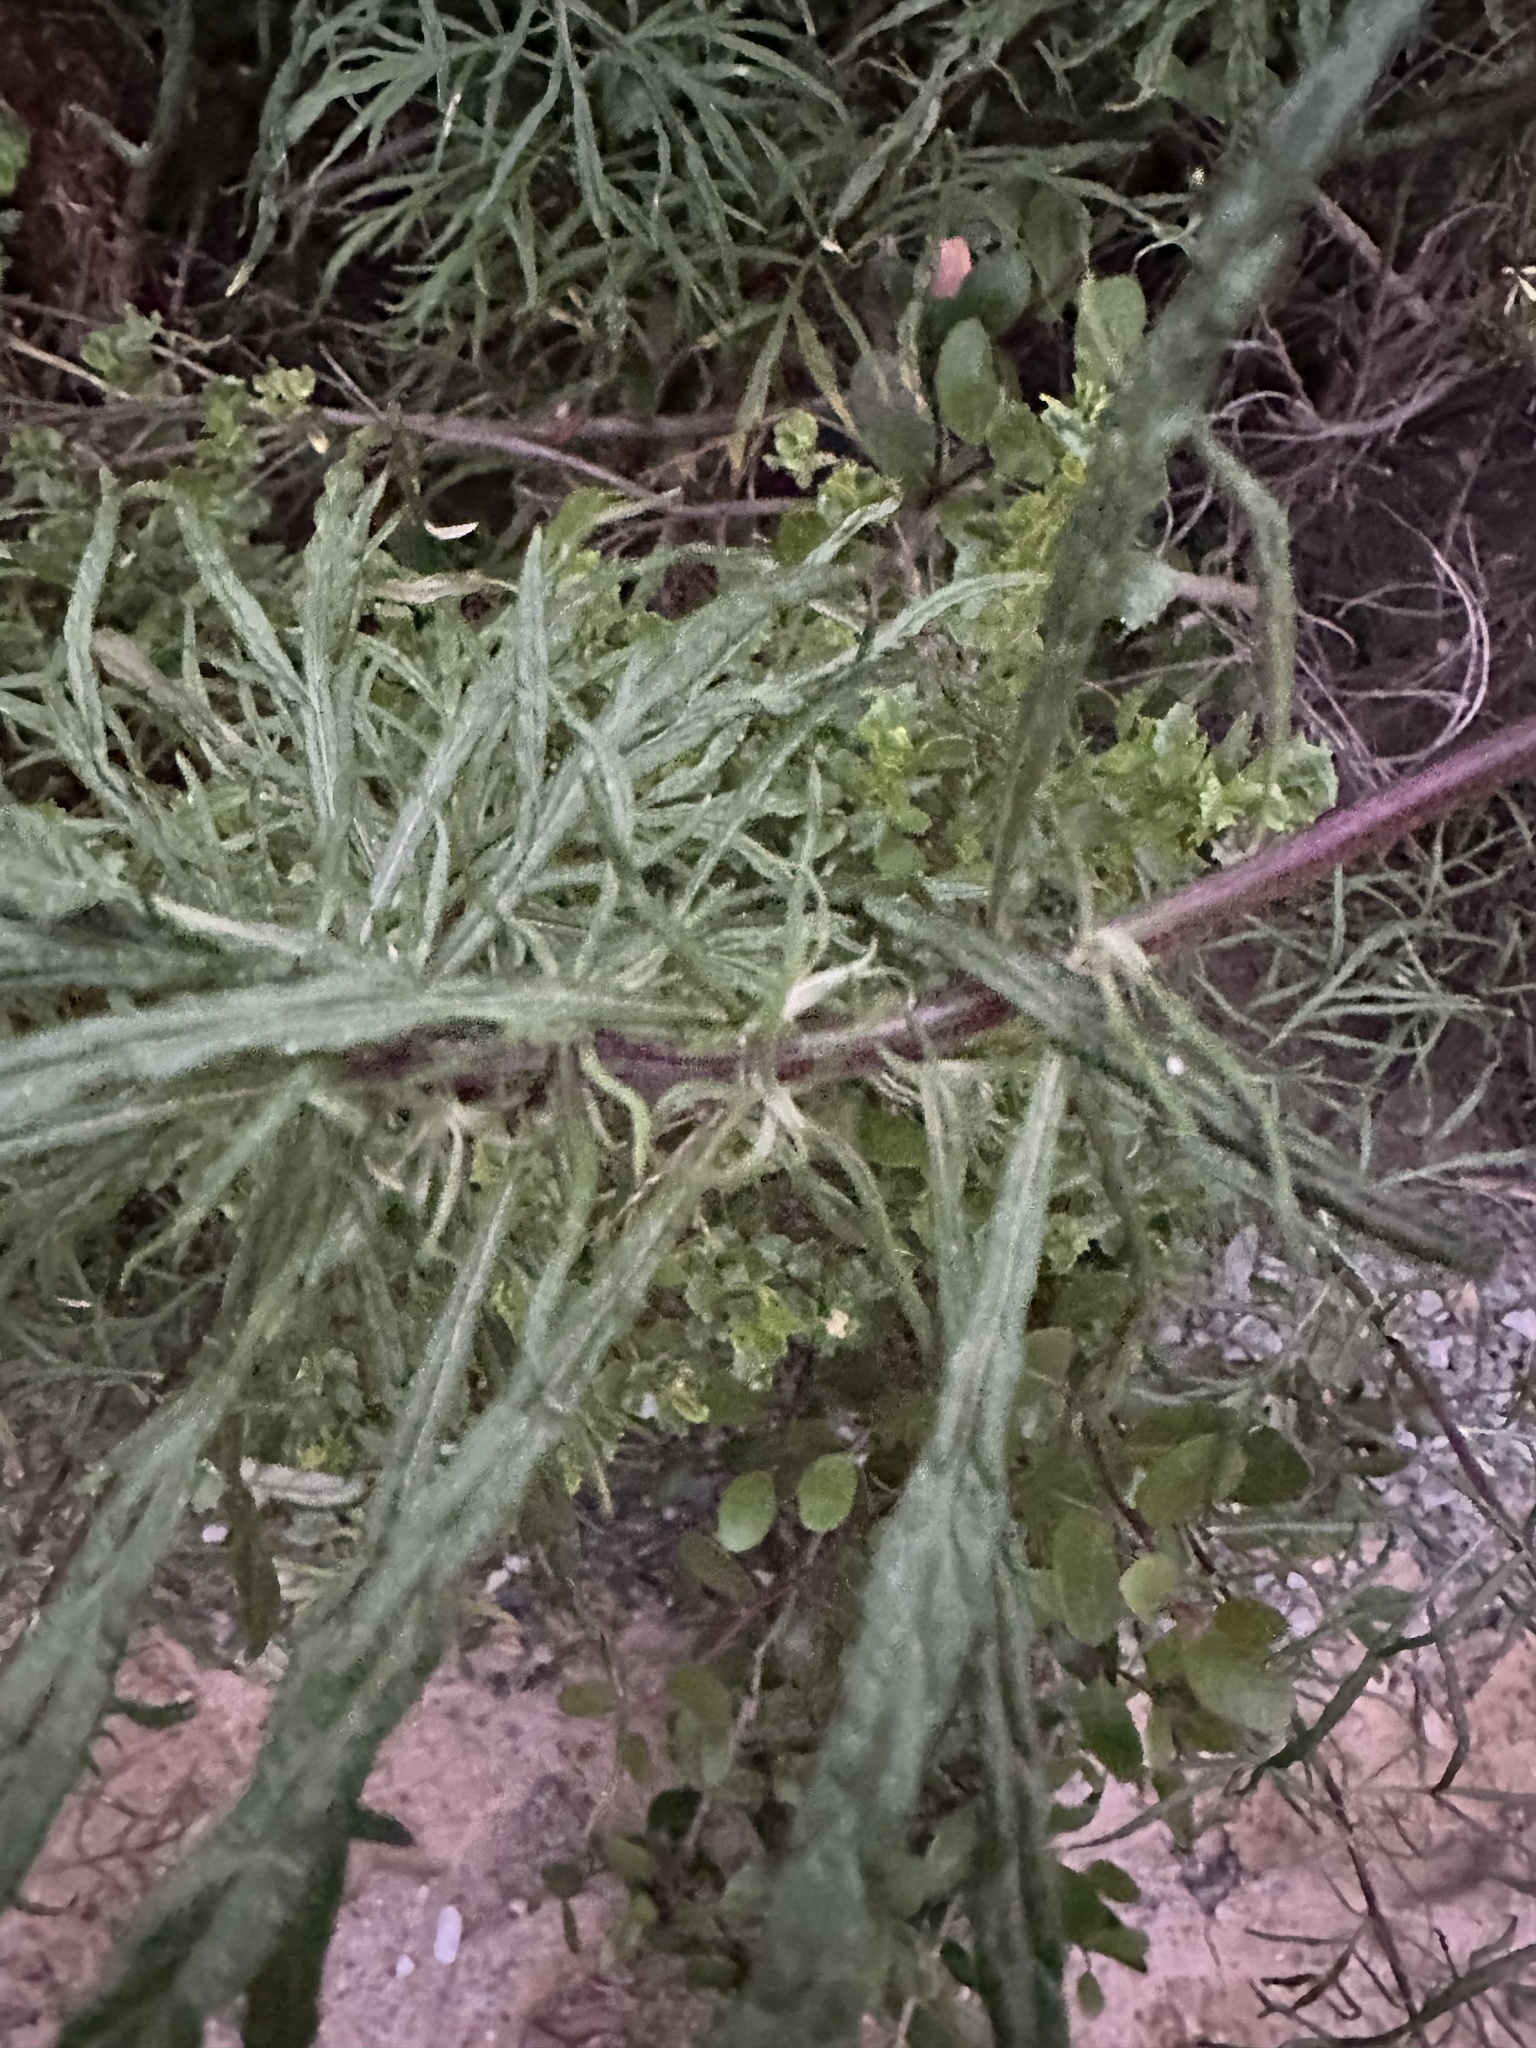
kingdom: Plantae
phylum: Tracheophyta
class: Magnoliopsida
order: Asterales
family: Asteraceae
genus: Artemisia
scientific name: Artemisia palmeri
